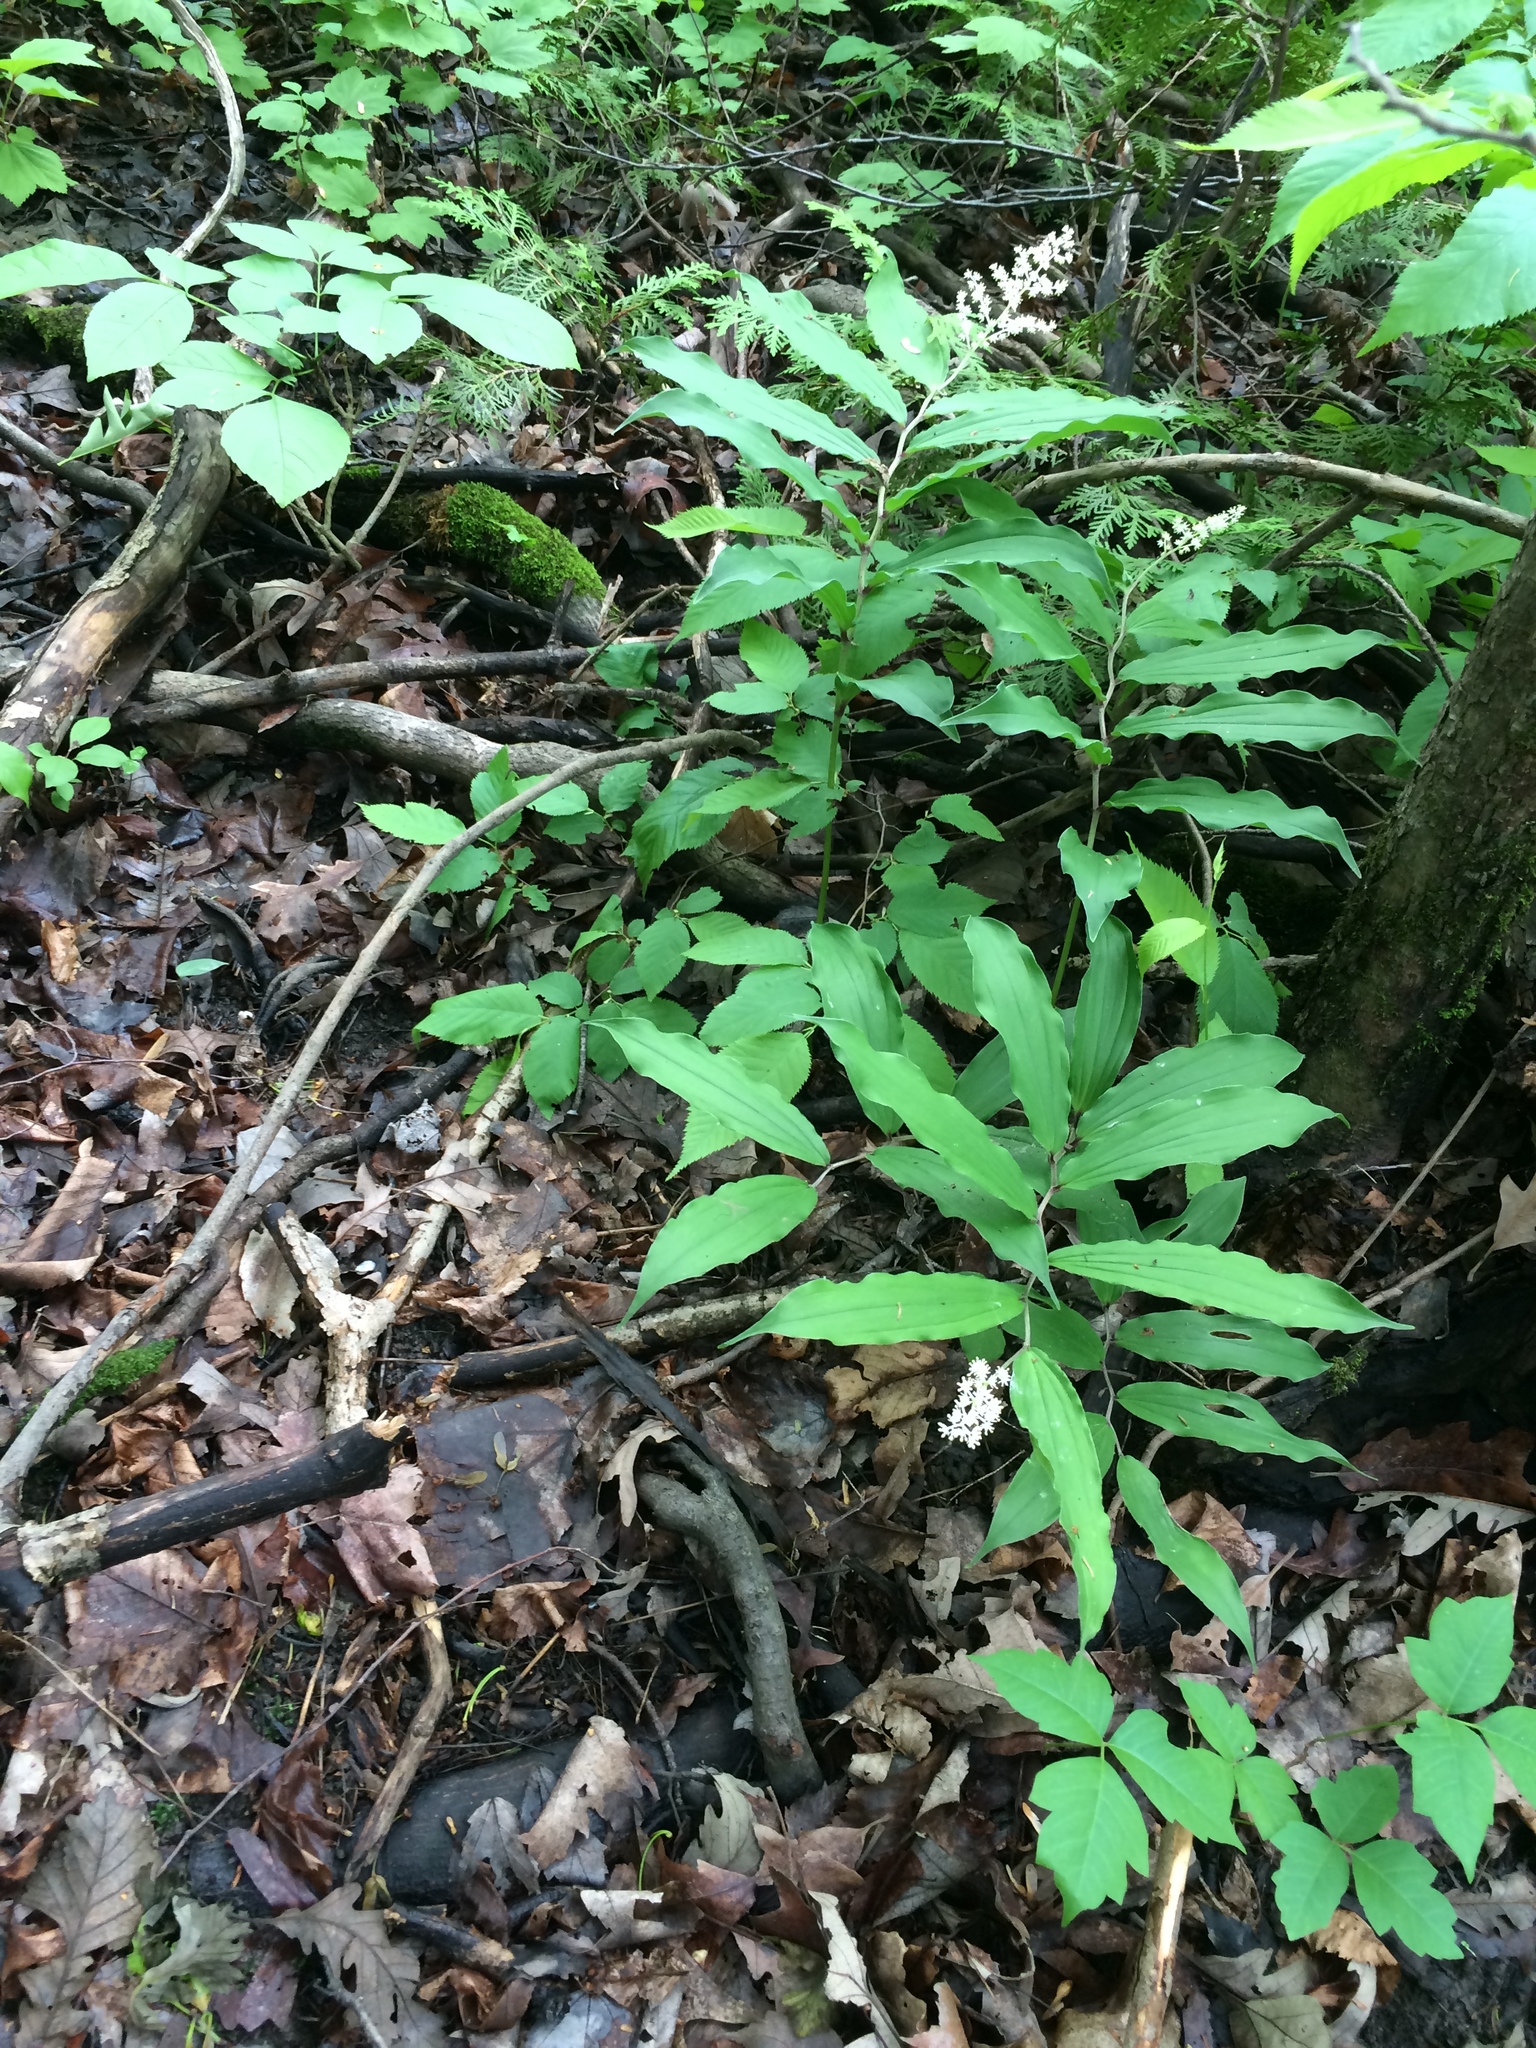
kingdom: Plantae
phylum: Tracheophyta
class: Liliopsida
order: Asparagales
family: Asparagaceae
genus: Maianthemum
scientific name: Maianthemum racemosum
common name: False spikenard
